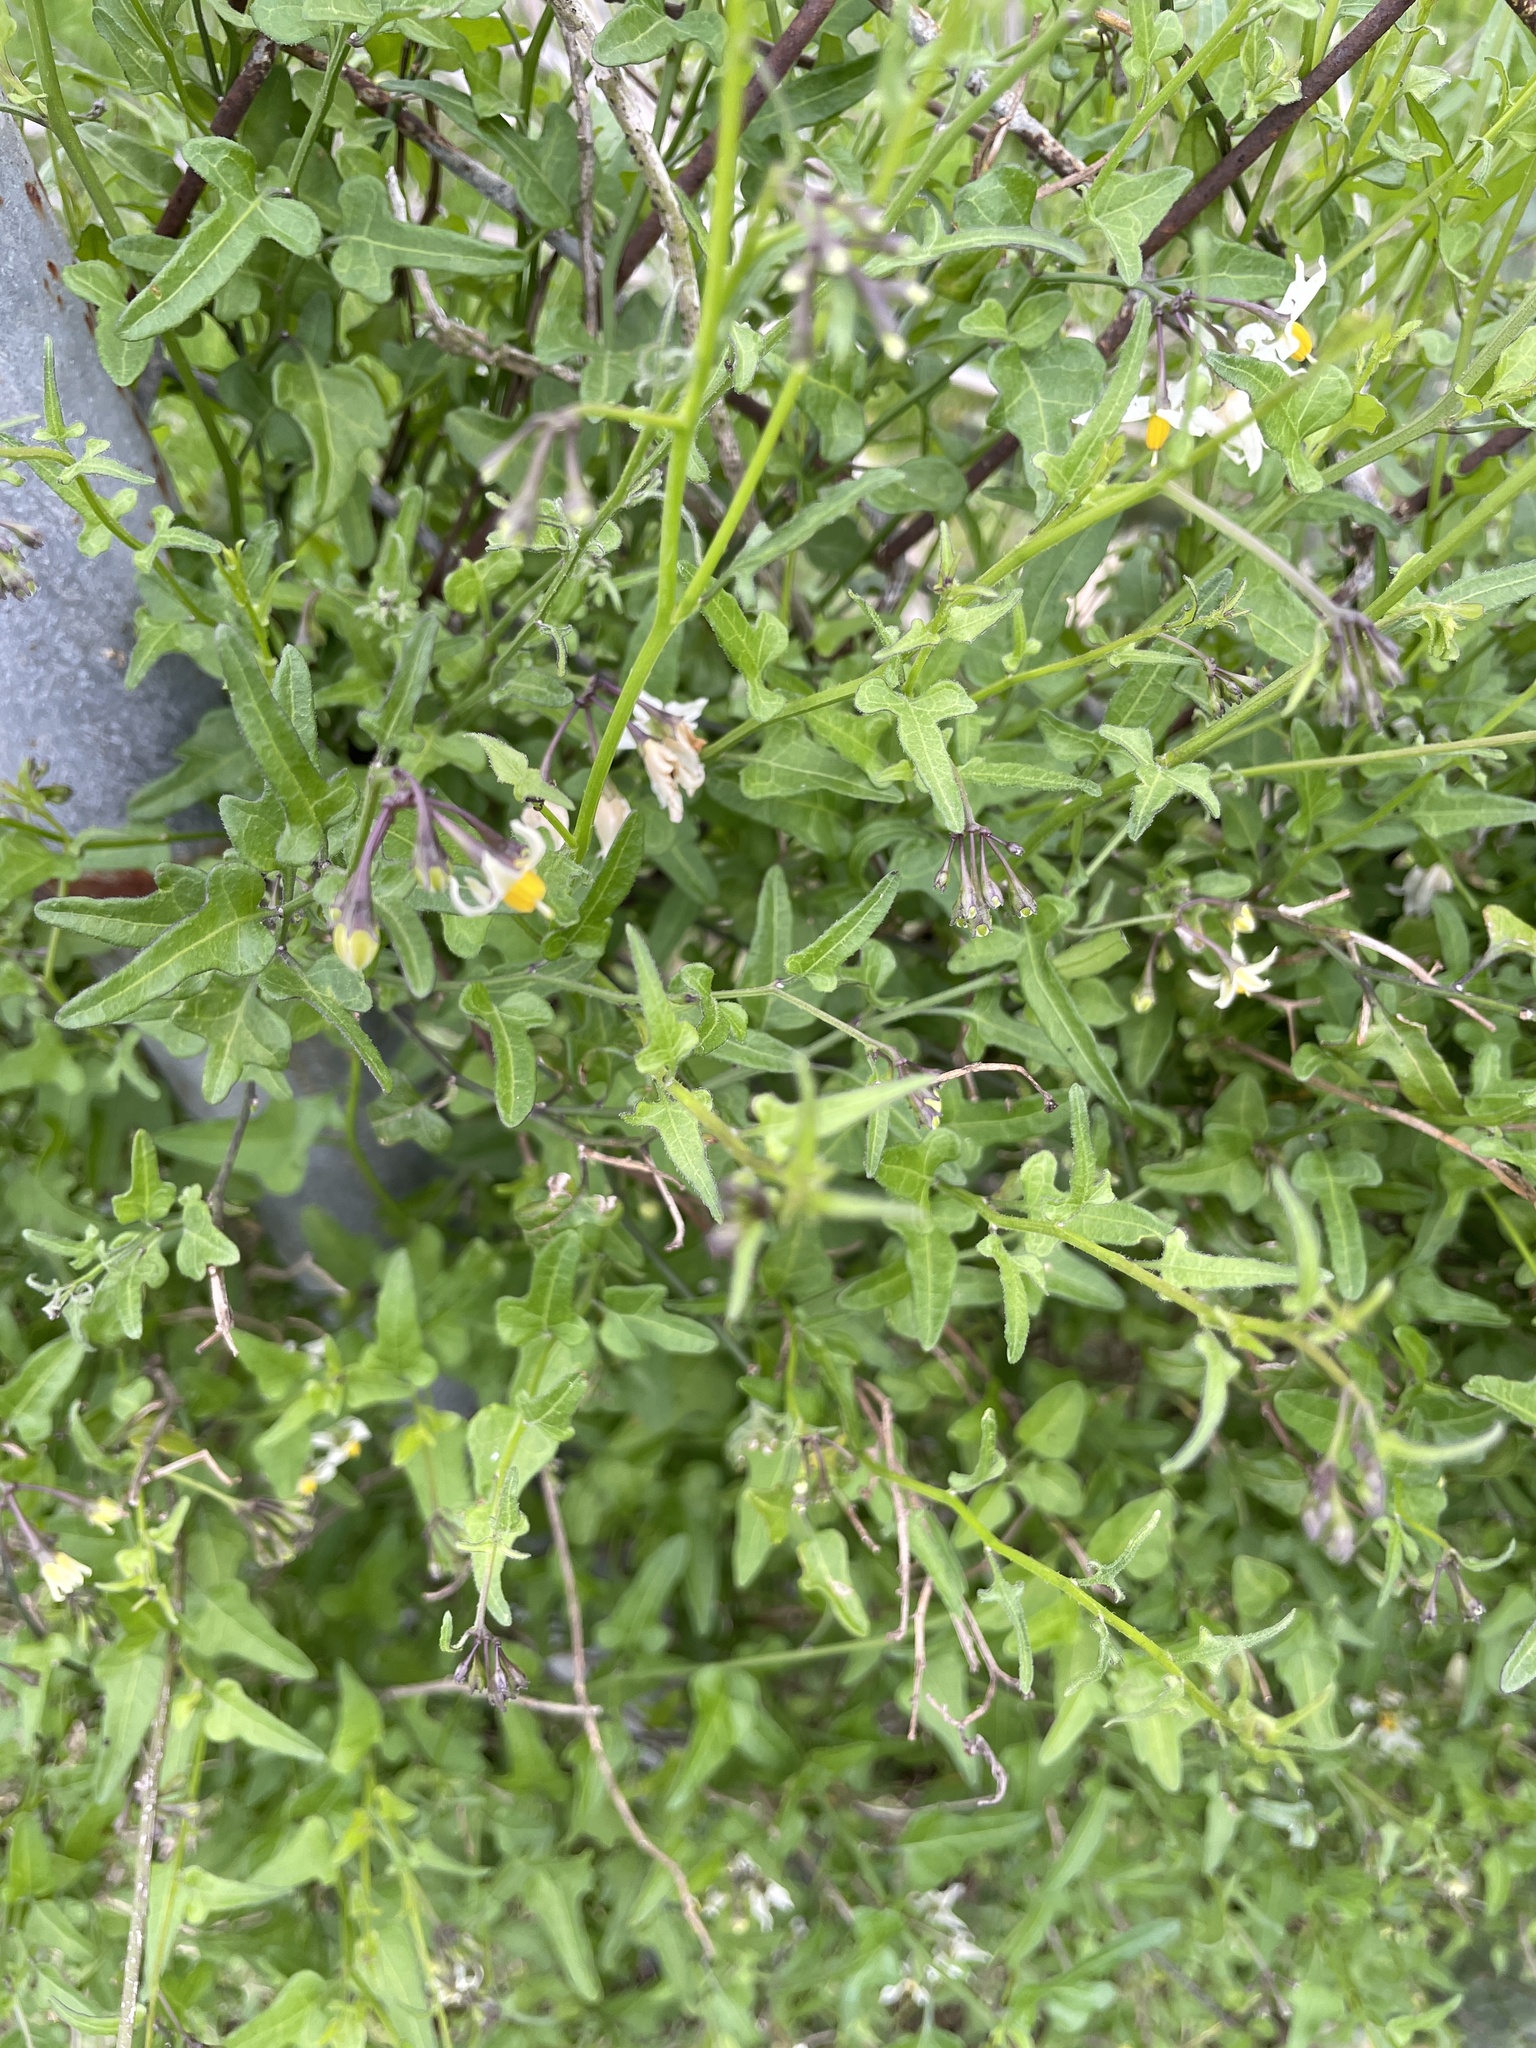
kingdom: Plantae
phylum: Tracheophyta
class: Magnoliopsida
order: Solanales
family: Solanaceae
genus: Solanum
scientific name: Solanum triquetrum
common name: Texas nightshade
